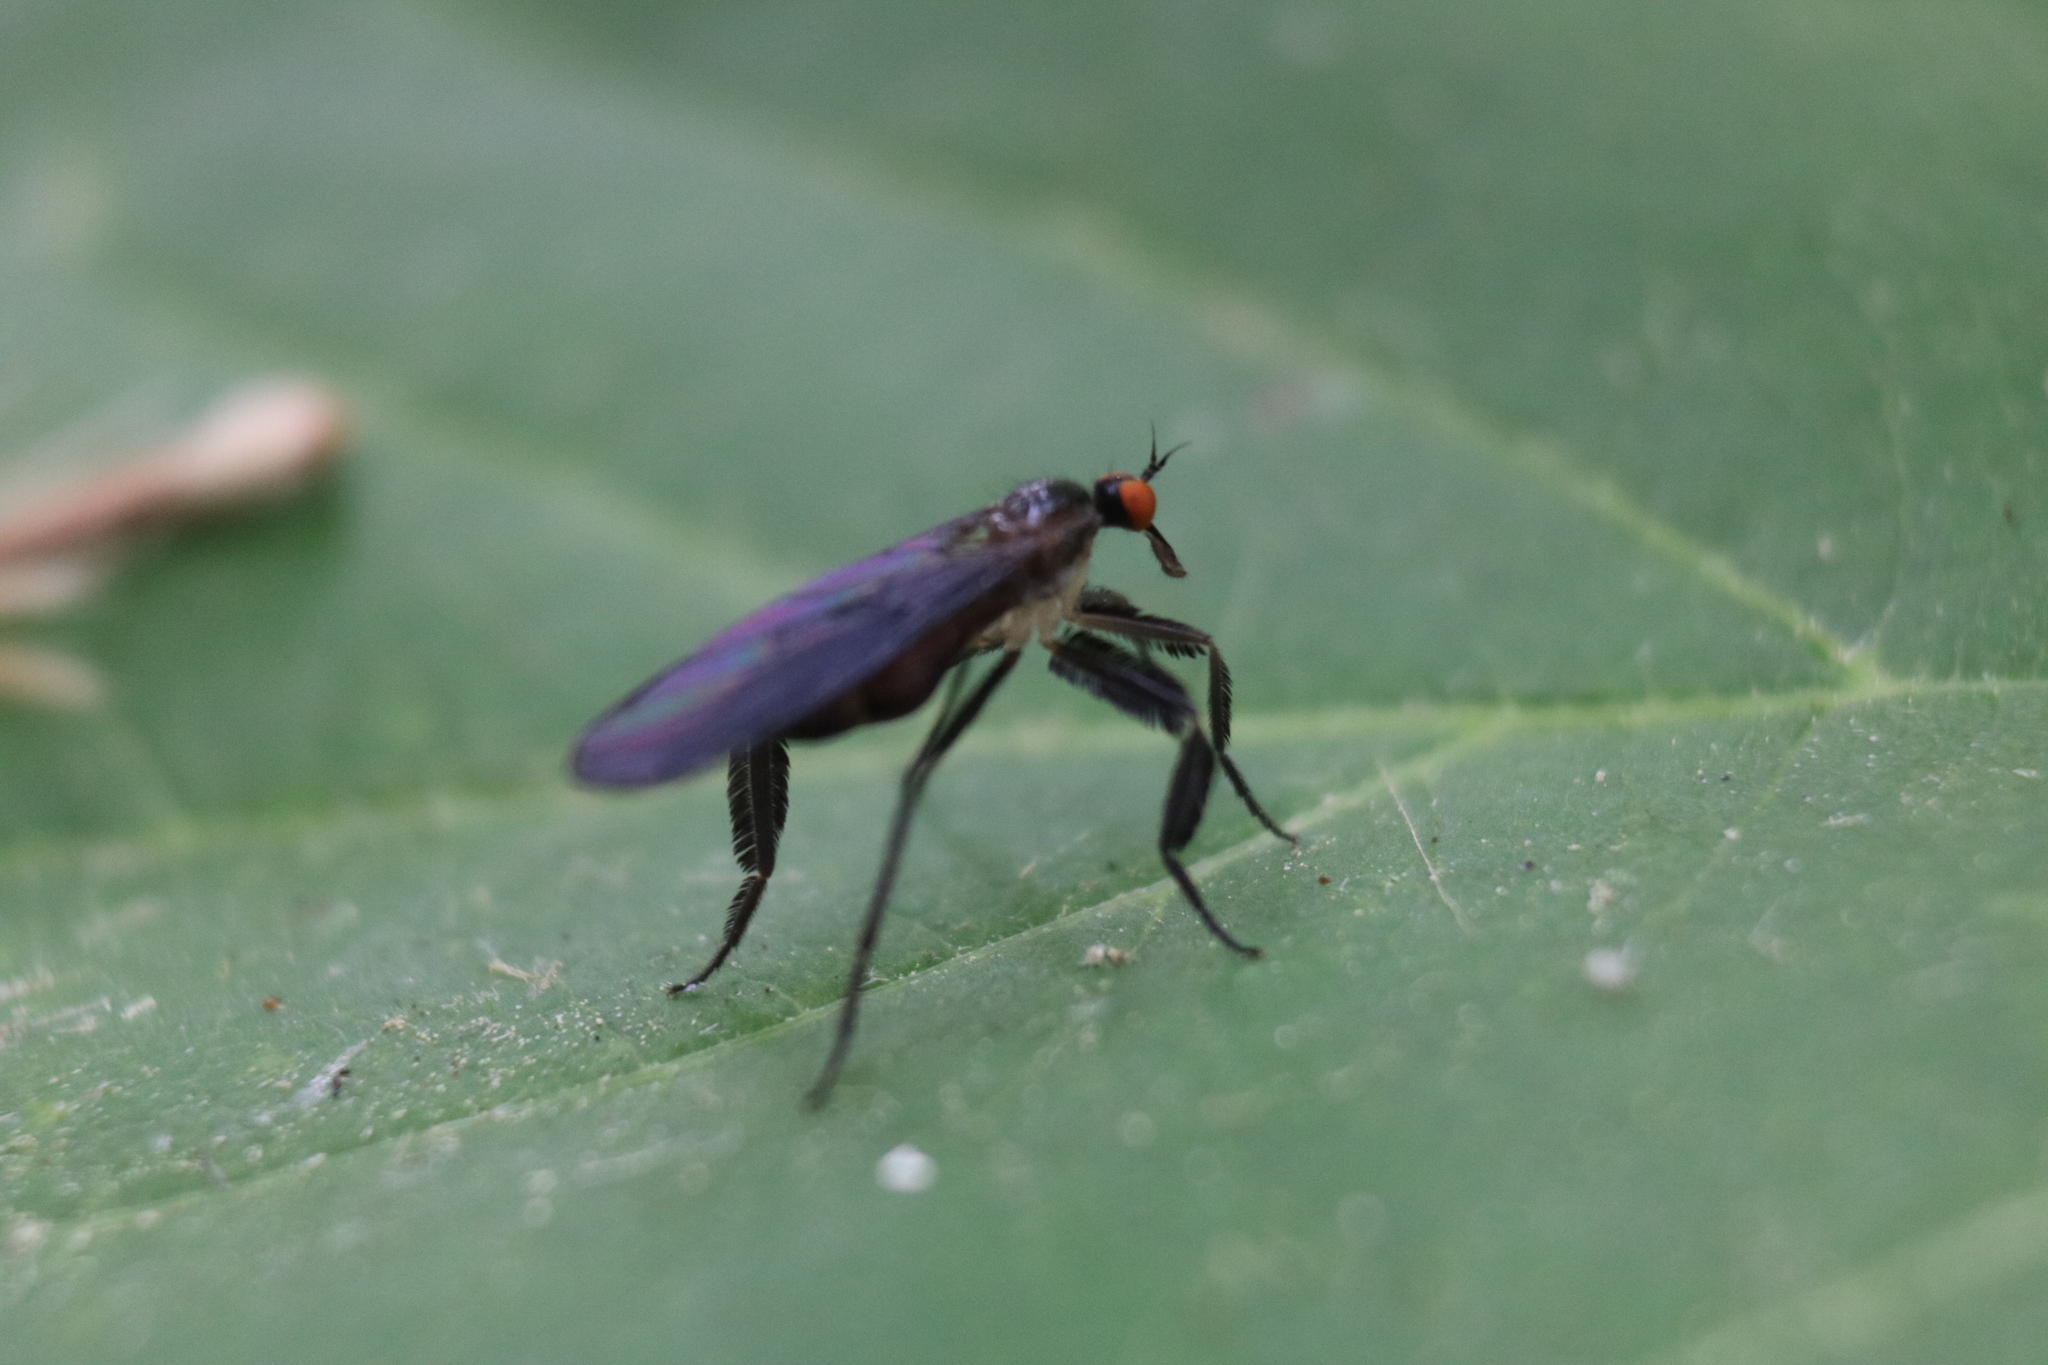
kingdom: Animalia
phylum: Arthropoda
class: Insecta
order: Diptera
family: Empididae
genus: Rhamphomyia
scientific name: Rhamphomyia longicauda
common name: Long-tailed dance fly
